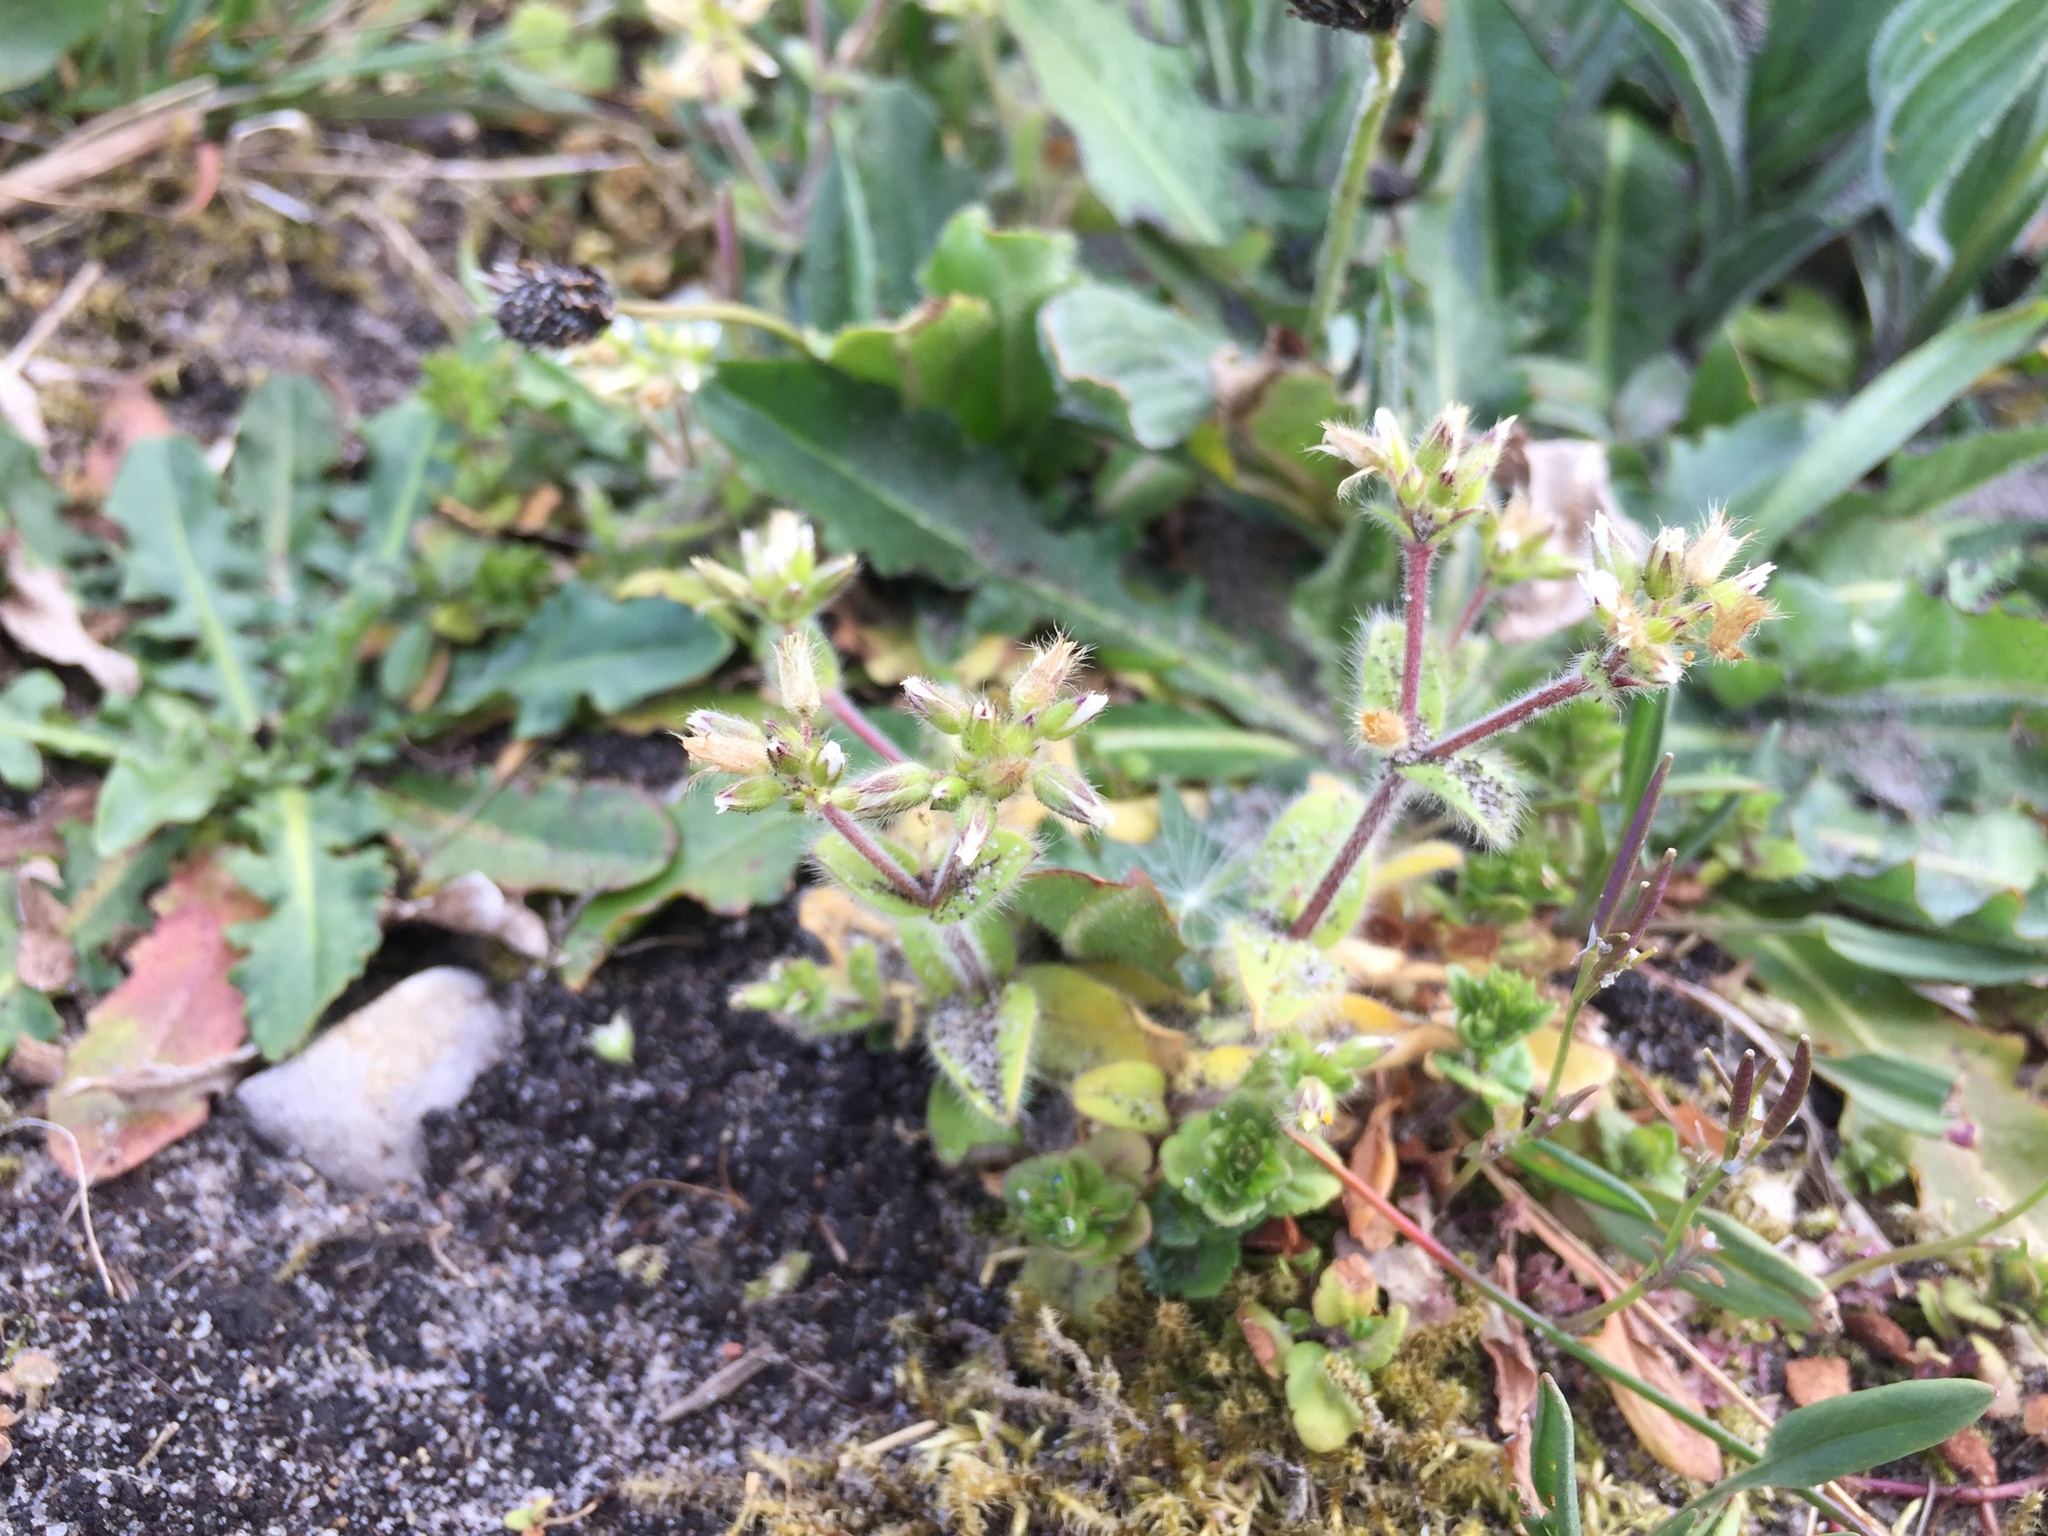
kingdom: Plantae
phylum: Tracheophyta
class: Magnoliopsida
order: Caryophyllales
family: Caryophyllaceae
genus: Cerastium
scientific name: Cerastium glomeratum
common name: Sticky chickweed
